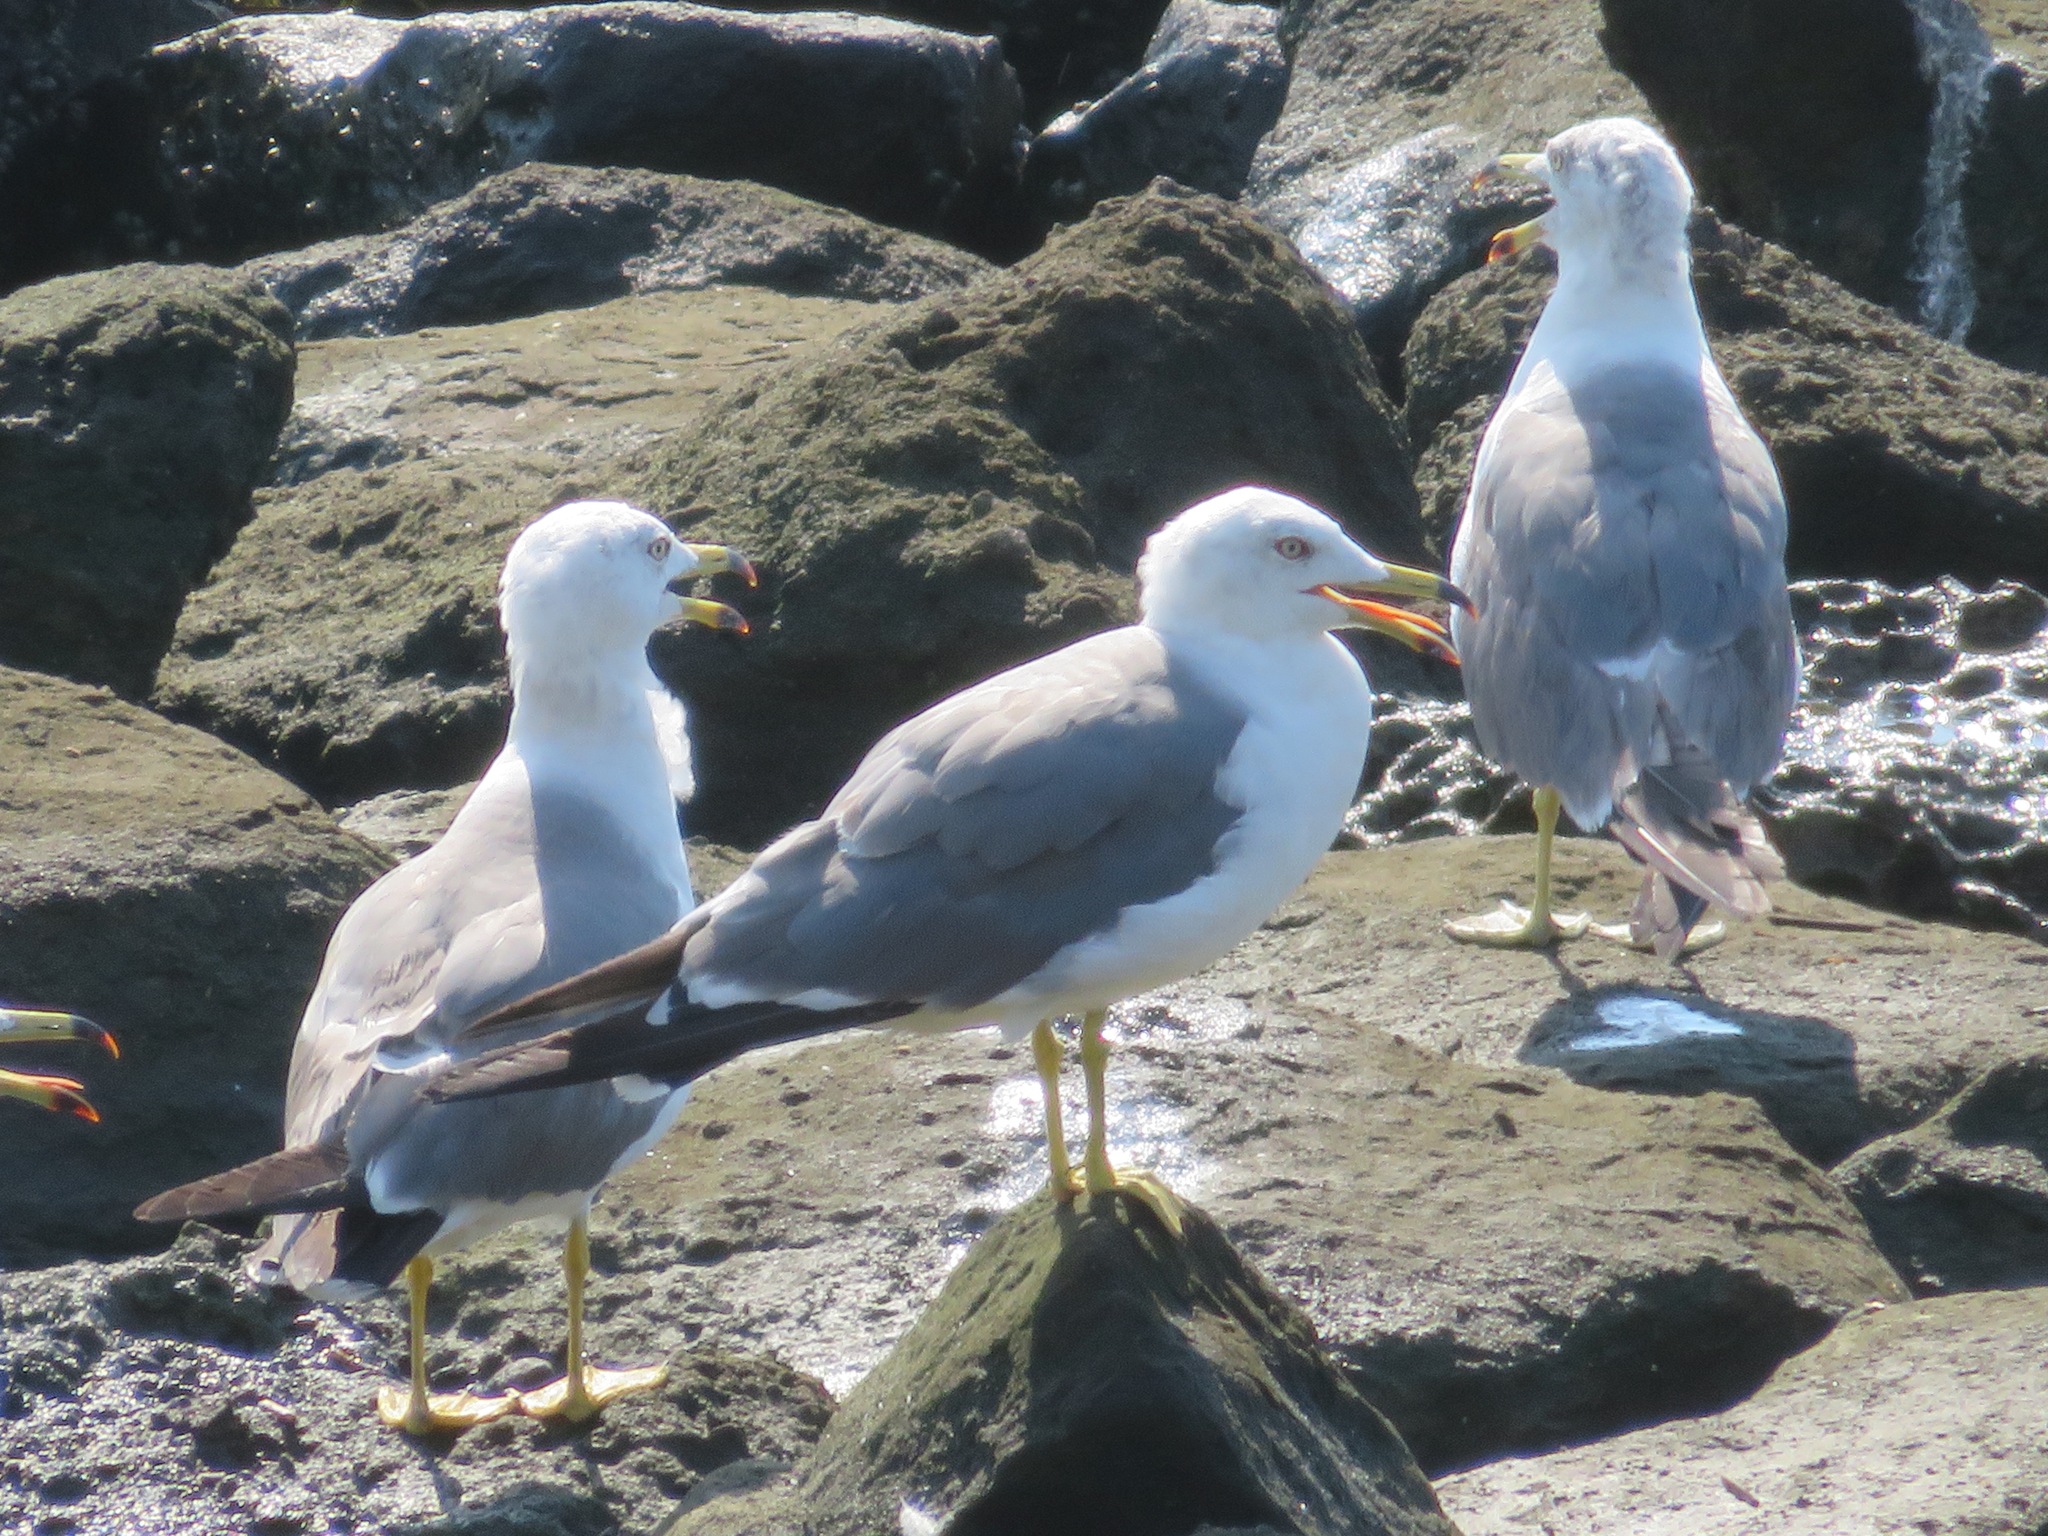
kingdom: Animalia
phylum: Chordata
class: Aves
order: Charadriiformes
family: Laridae
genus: Larus
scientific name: Larus crassirostris
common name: Black-tailed gull
